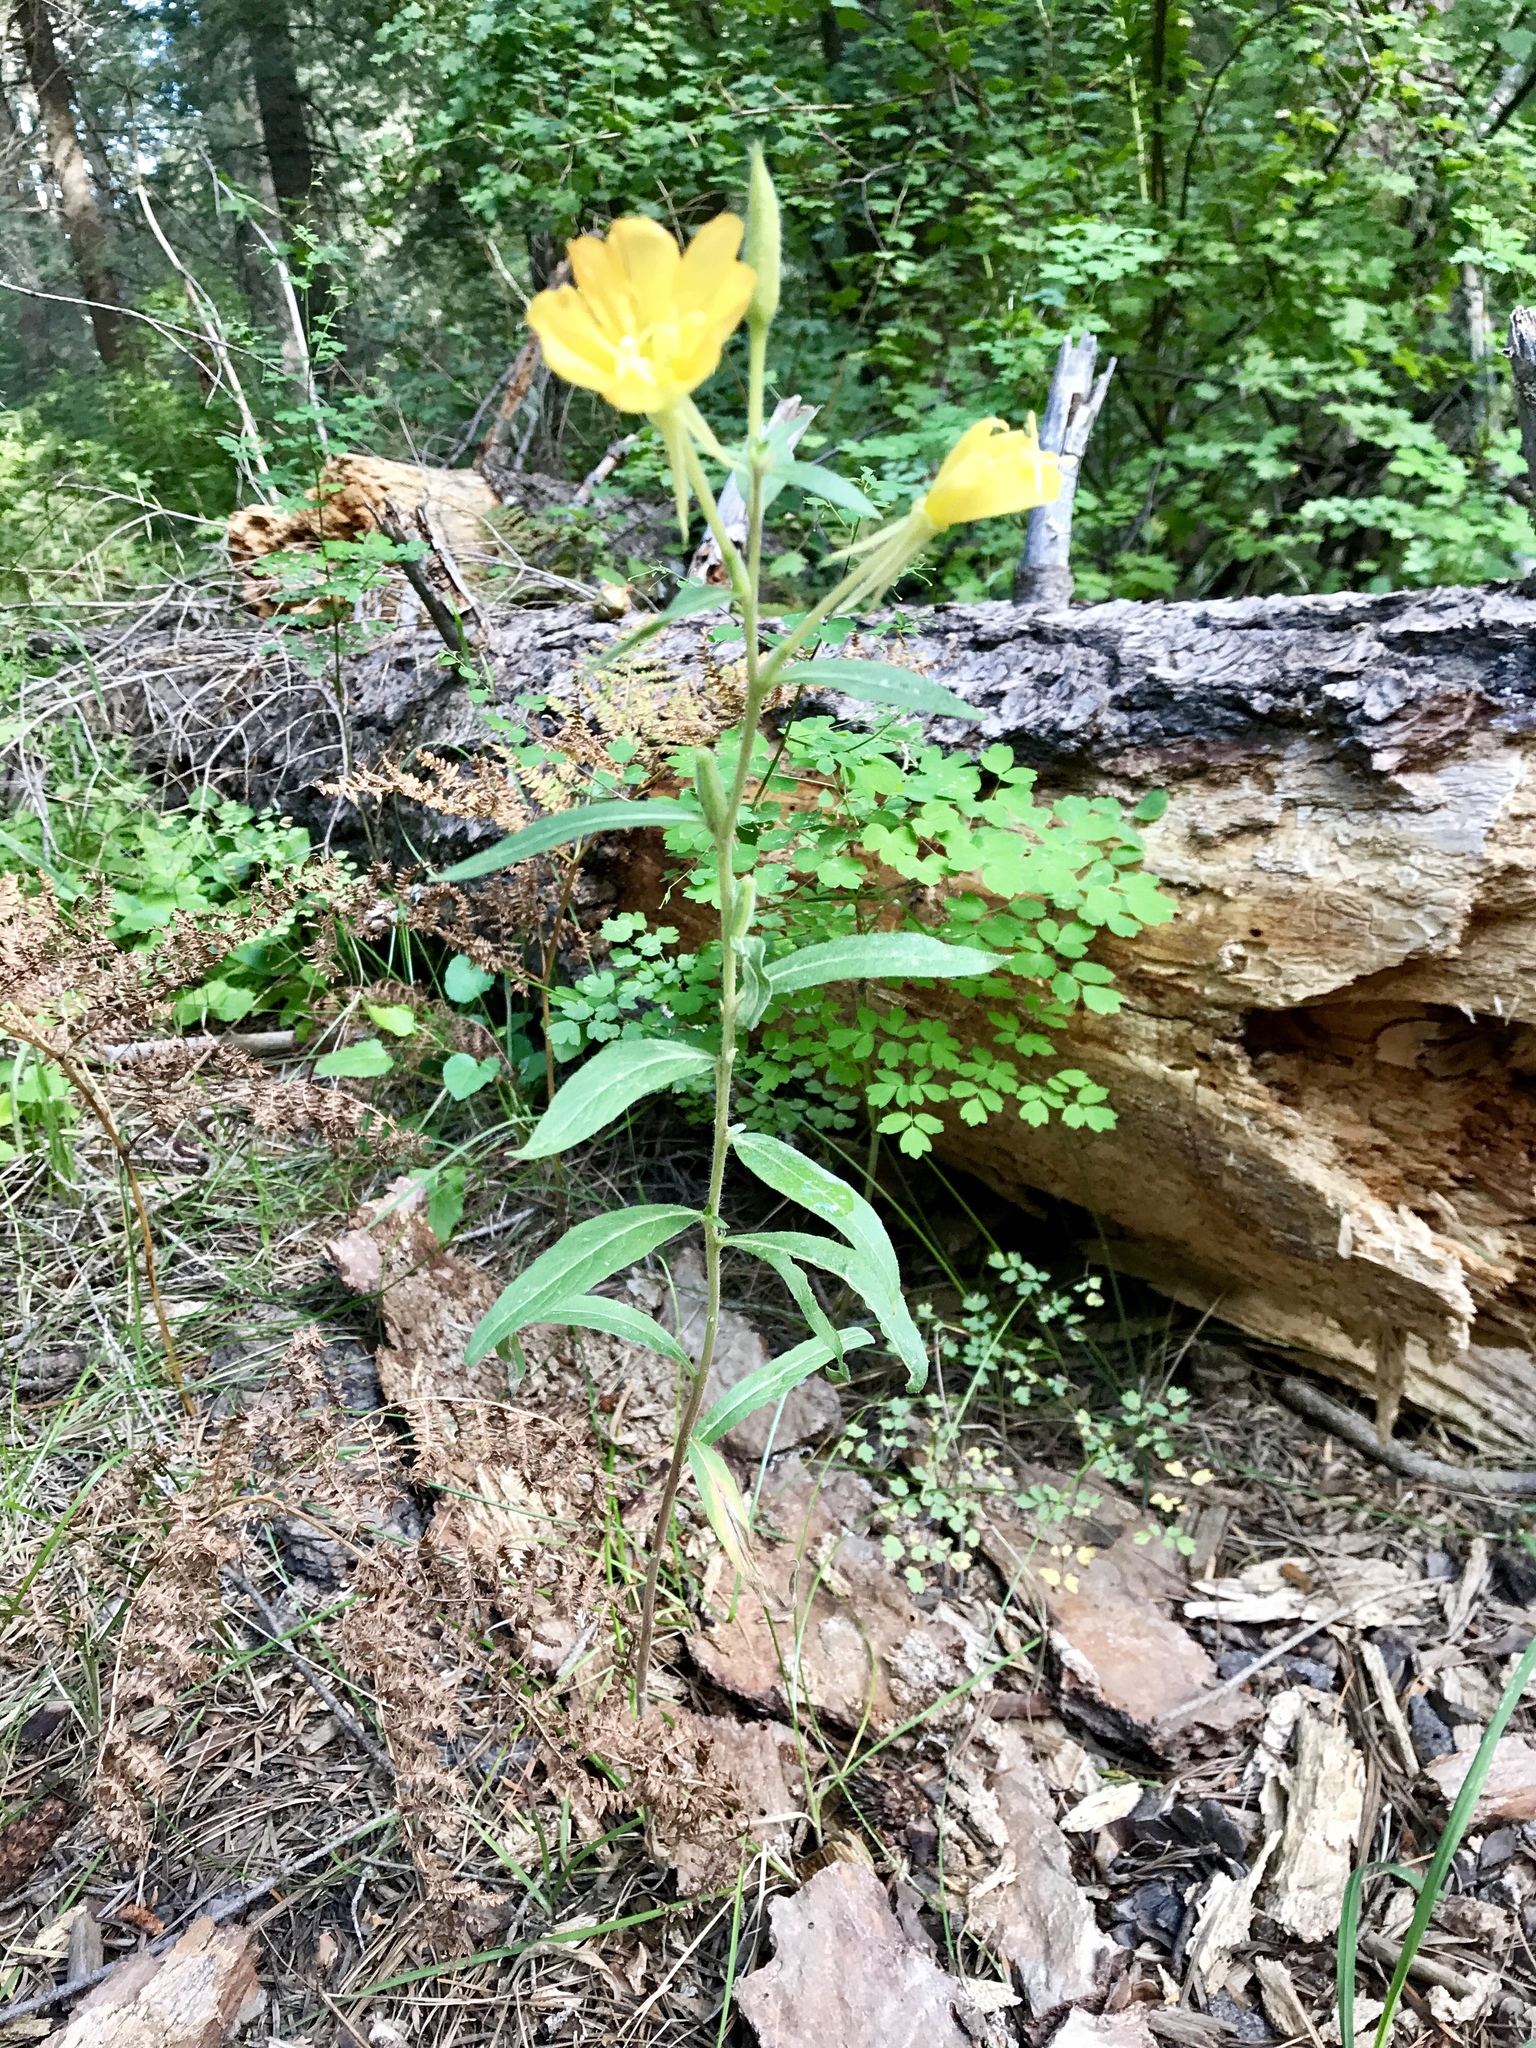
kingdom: Plantae
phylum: Tracheophyta
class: Magnoliopsida
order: Myrtales
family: Onagraceae
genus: Oenothera
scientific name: Oenothera elata
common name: Hooker's evening-primrose
